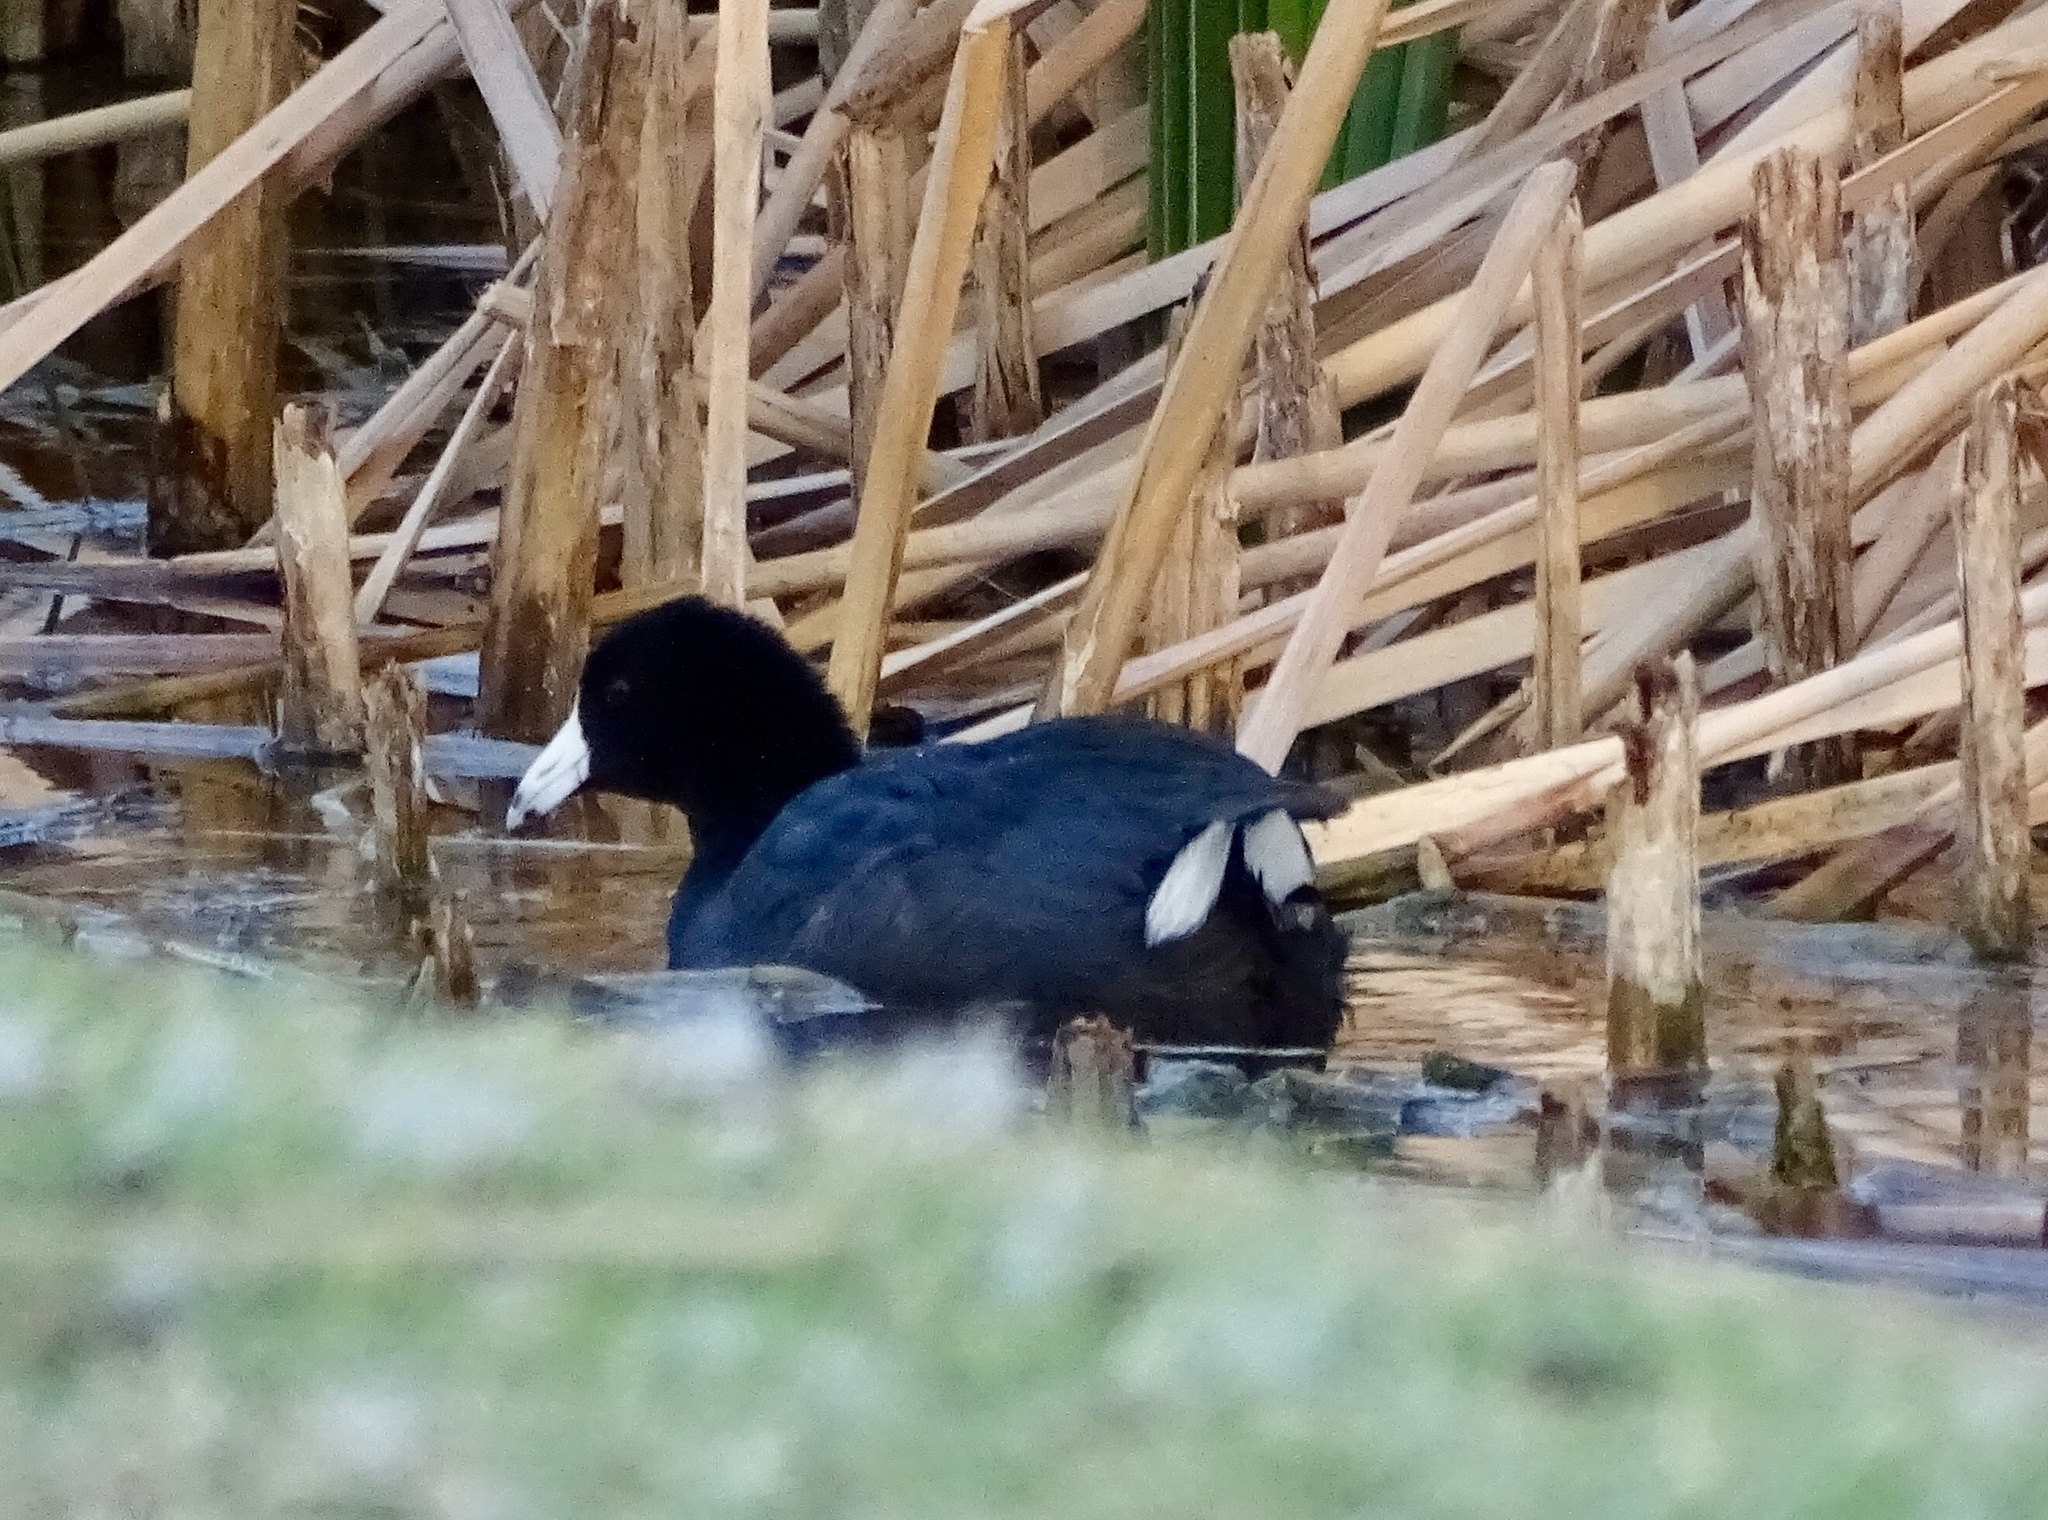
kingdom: Animalia
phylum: Chordata
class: Aves
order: Gruiformes
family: Rallidae
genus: Fulica
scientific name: Fulica americana
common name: American coot
